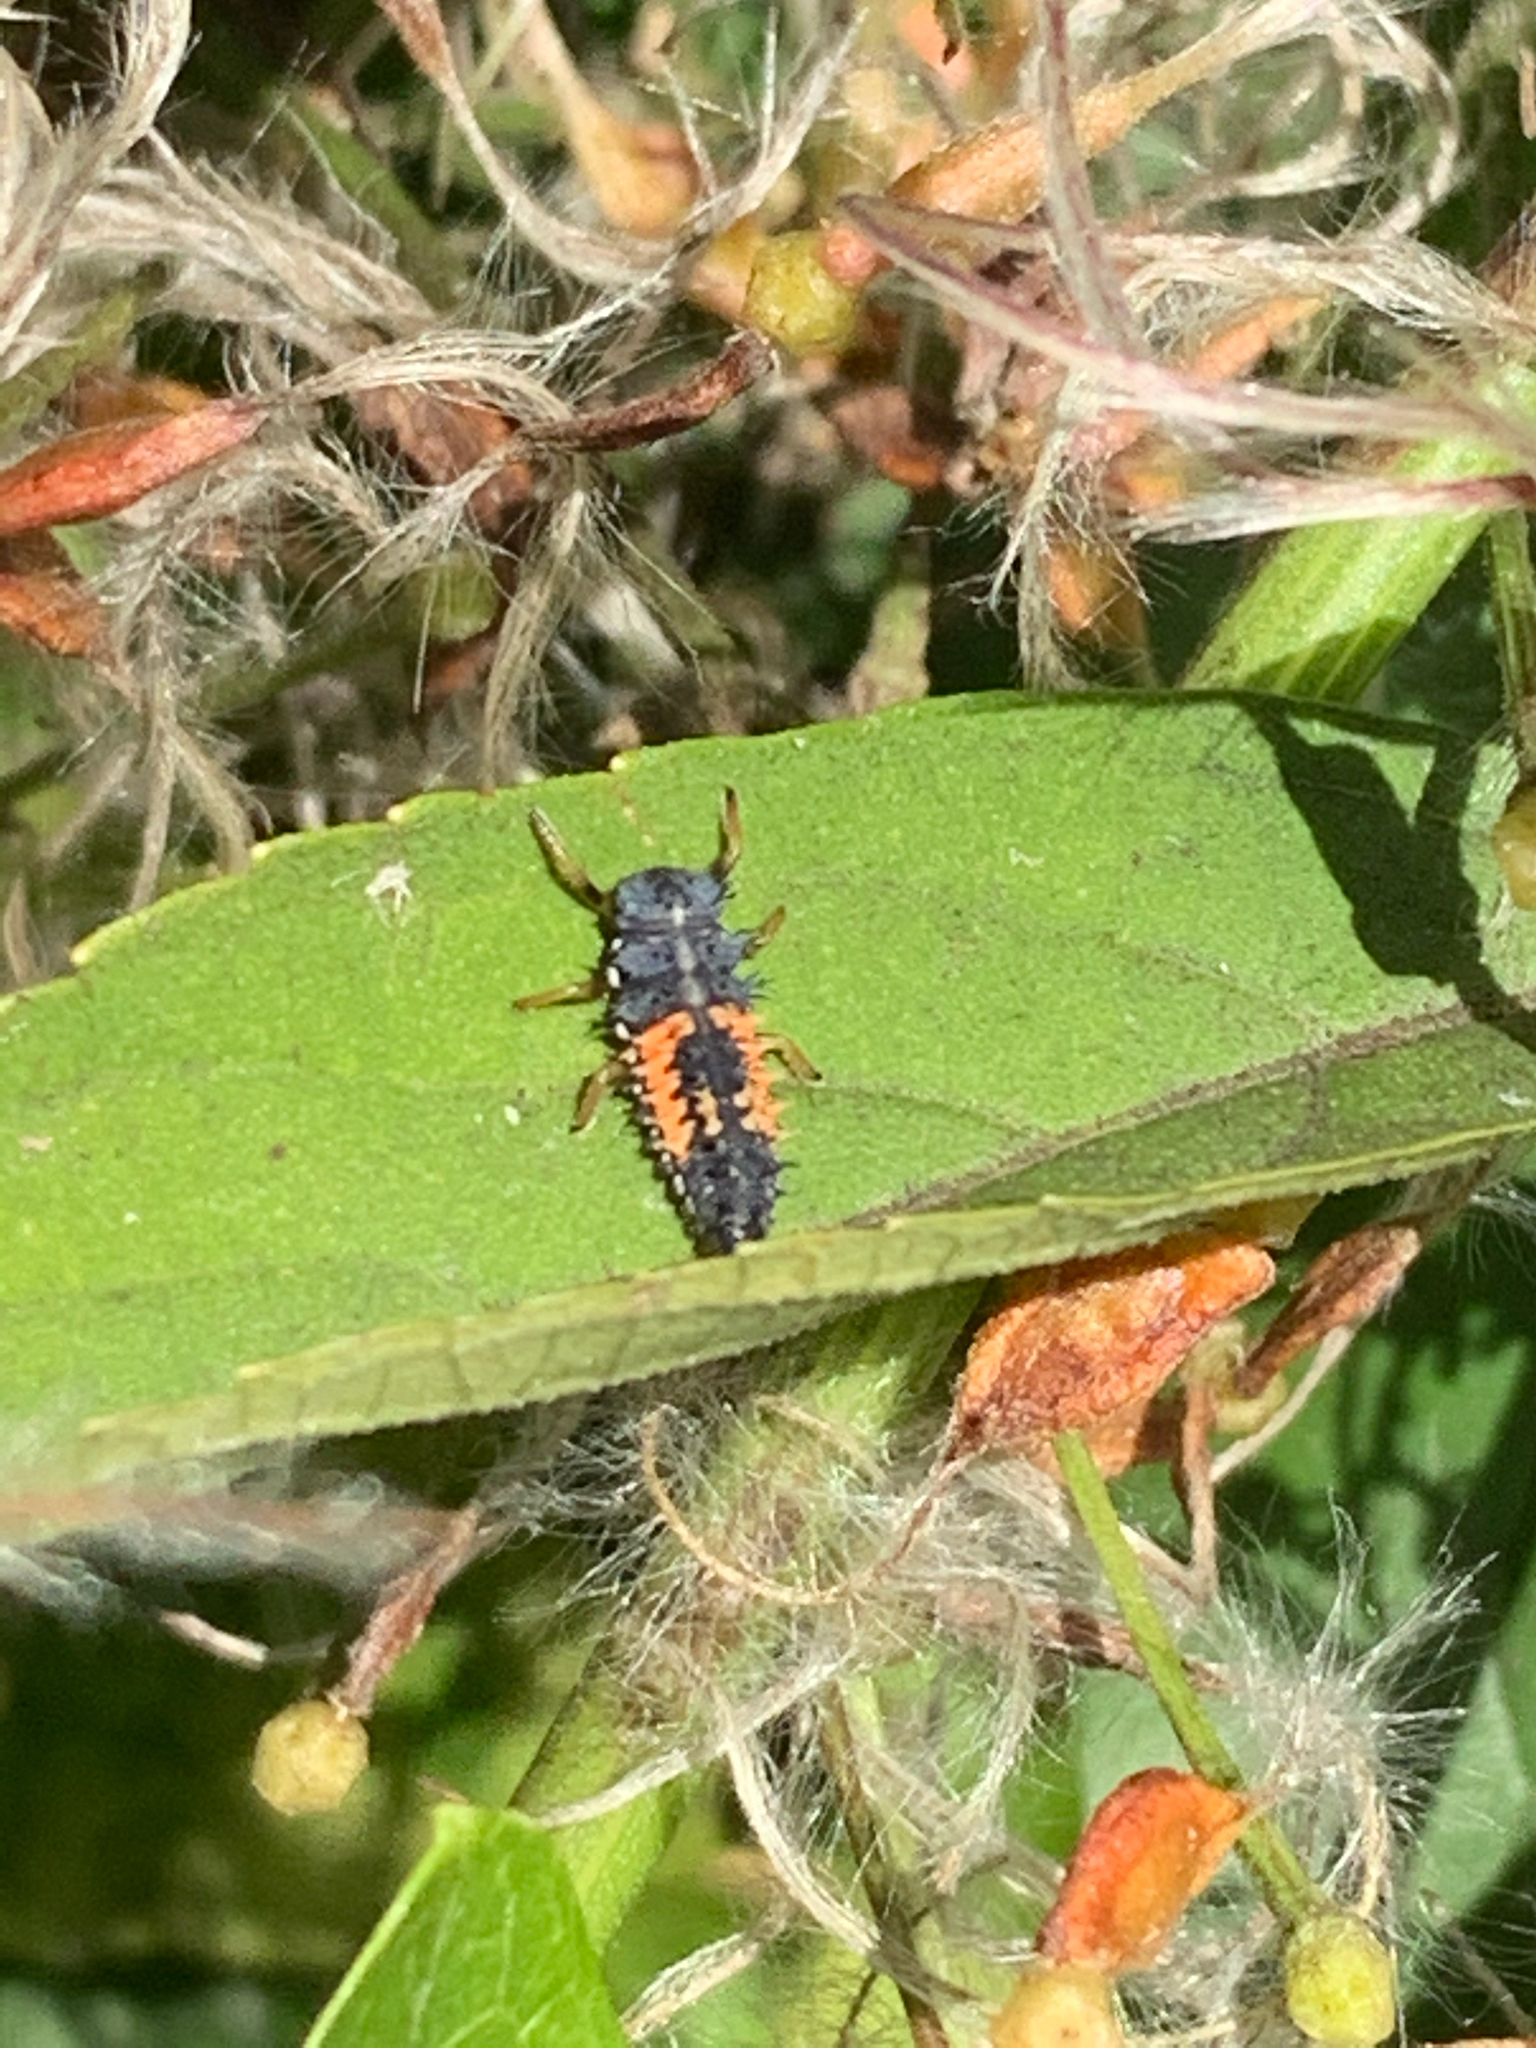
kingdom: Animalia
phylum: Arthropoda
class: Insecta
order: Coleoptera
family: Coccinellidae
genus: Harmonia
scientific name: Harmonia axyridis
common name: Harlequin ladybird
